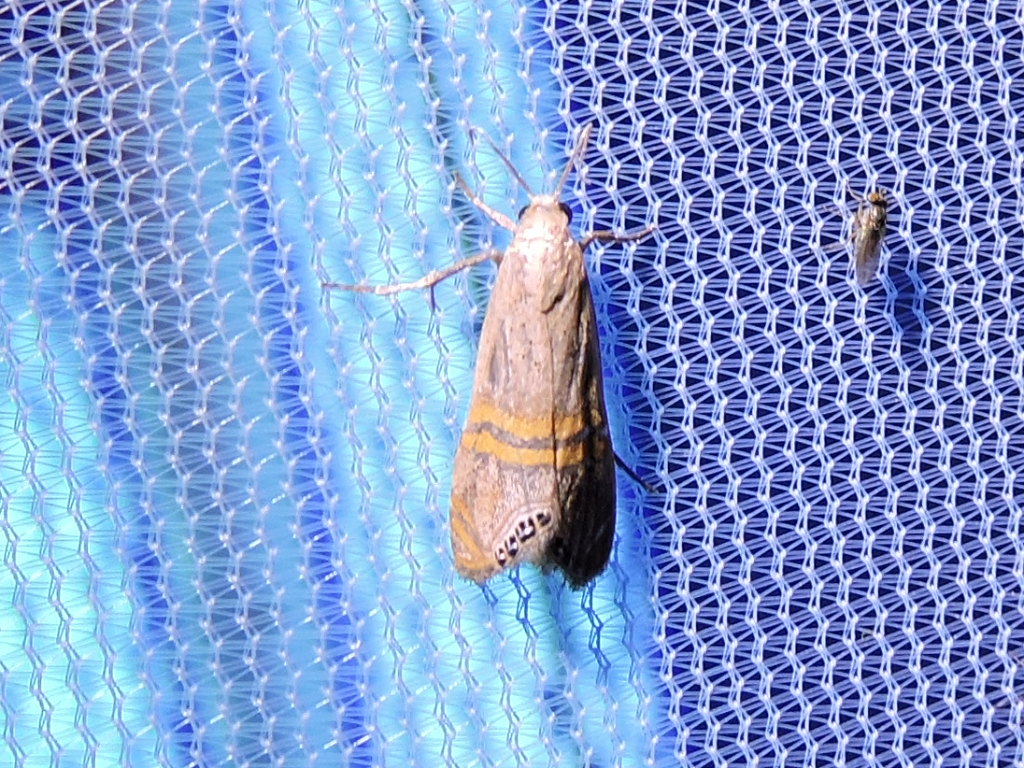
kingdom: Animalia
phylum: Arthropoda
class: Insecta
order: Lepidoptera
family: Crambidae
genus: Euchromius
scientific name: Euchromius ocellea
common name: Necklace veneer moth
